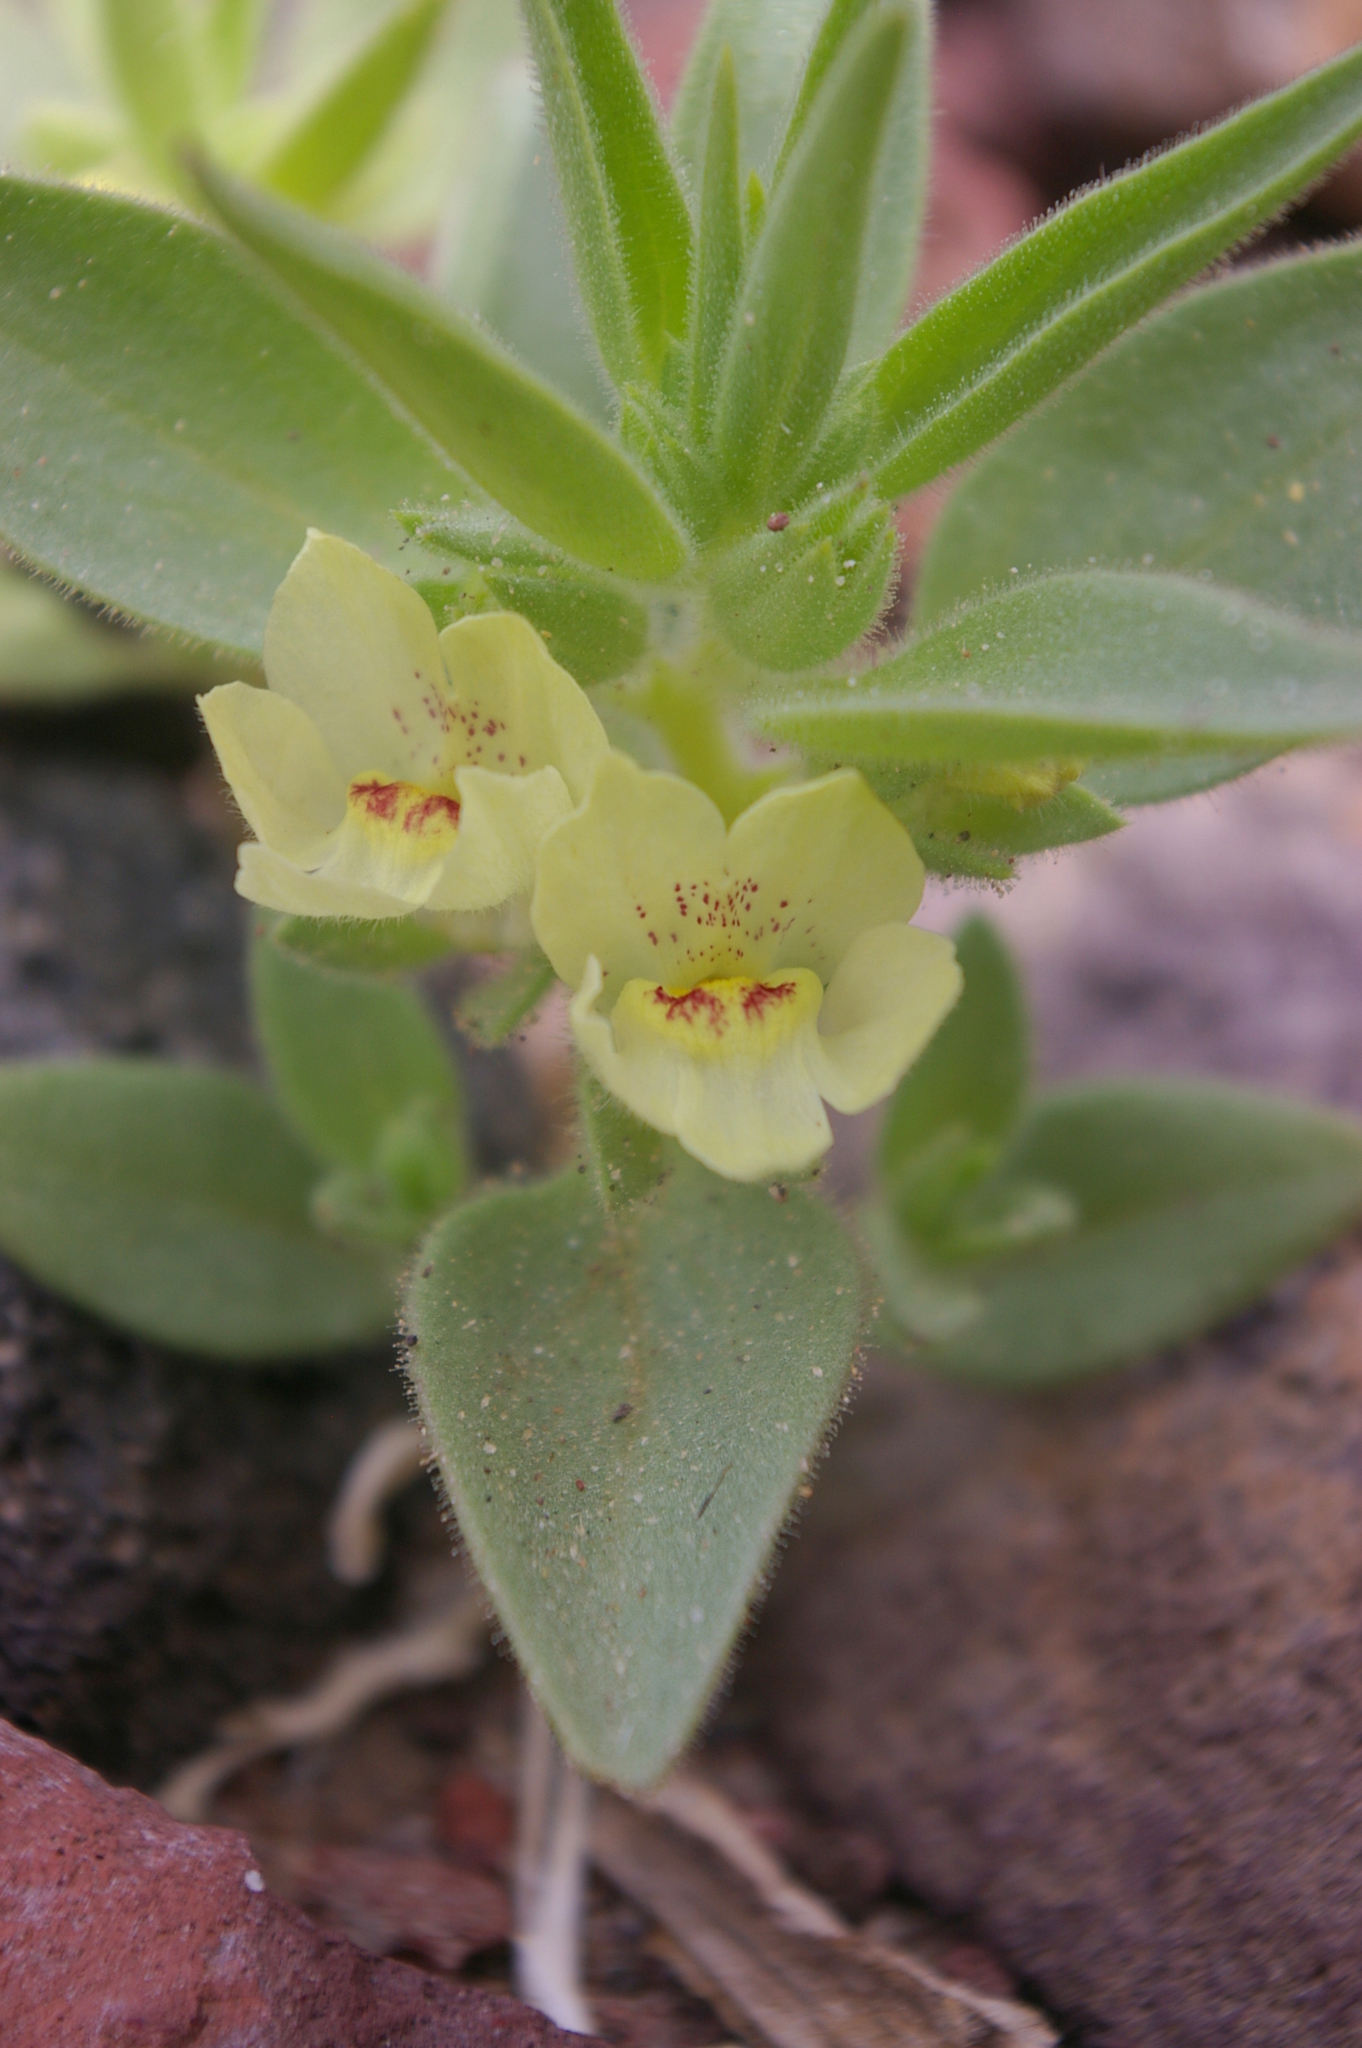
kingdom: Plantae
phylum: Tracheophyta
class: Magnoliopsida
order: Lamiales
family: Plantaginaceae
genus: Mohavea
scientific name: Mohavea confertiflora
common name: Ghost flower
